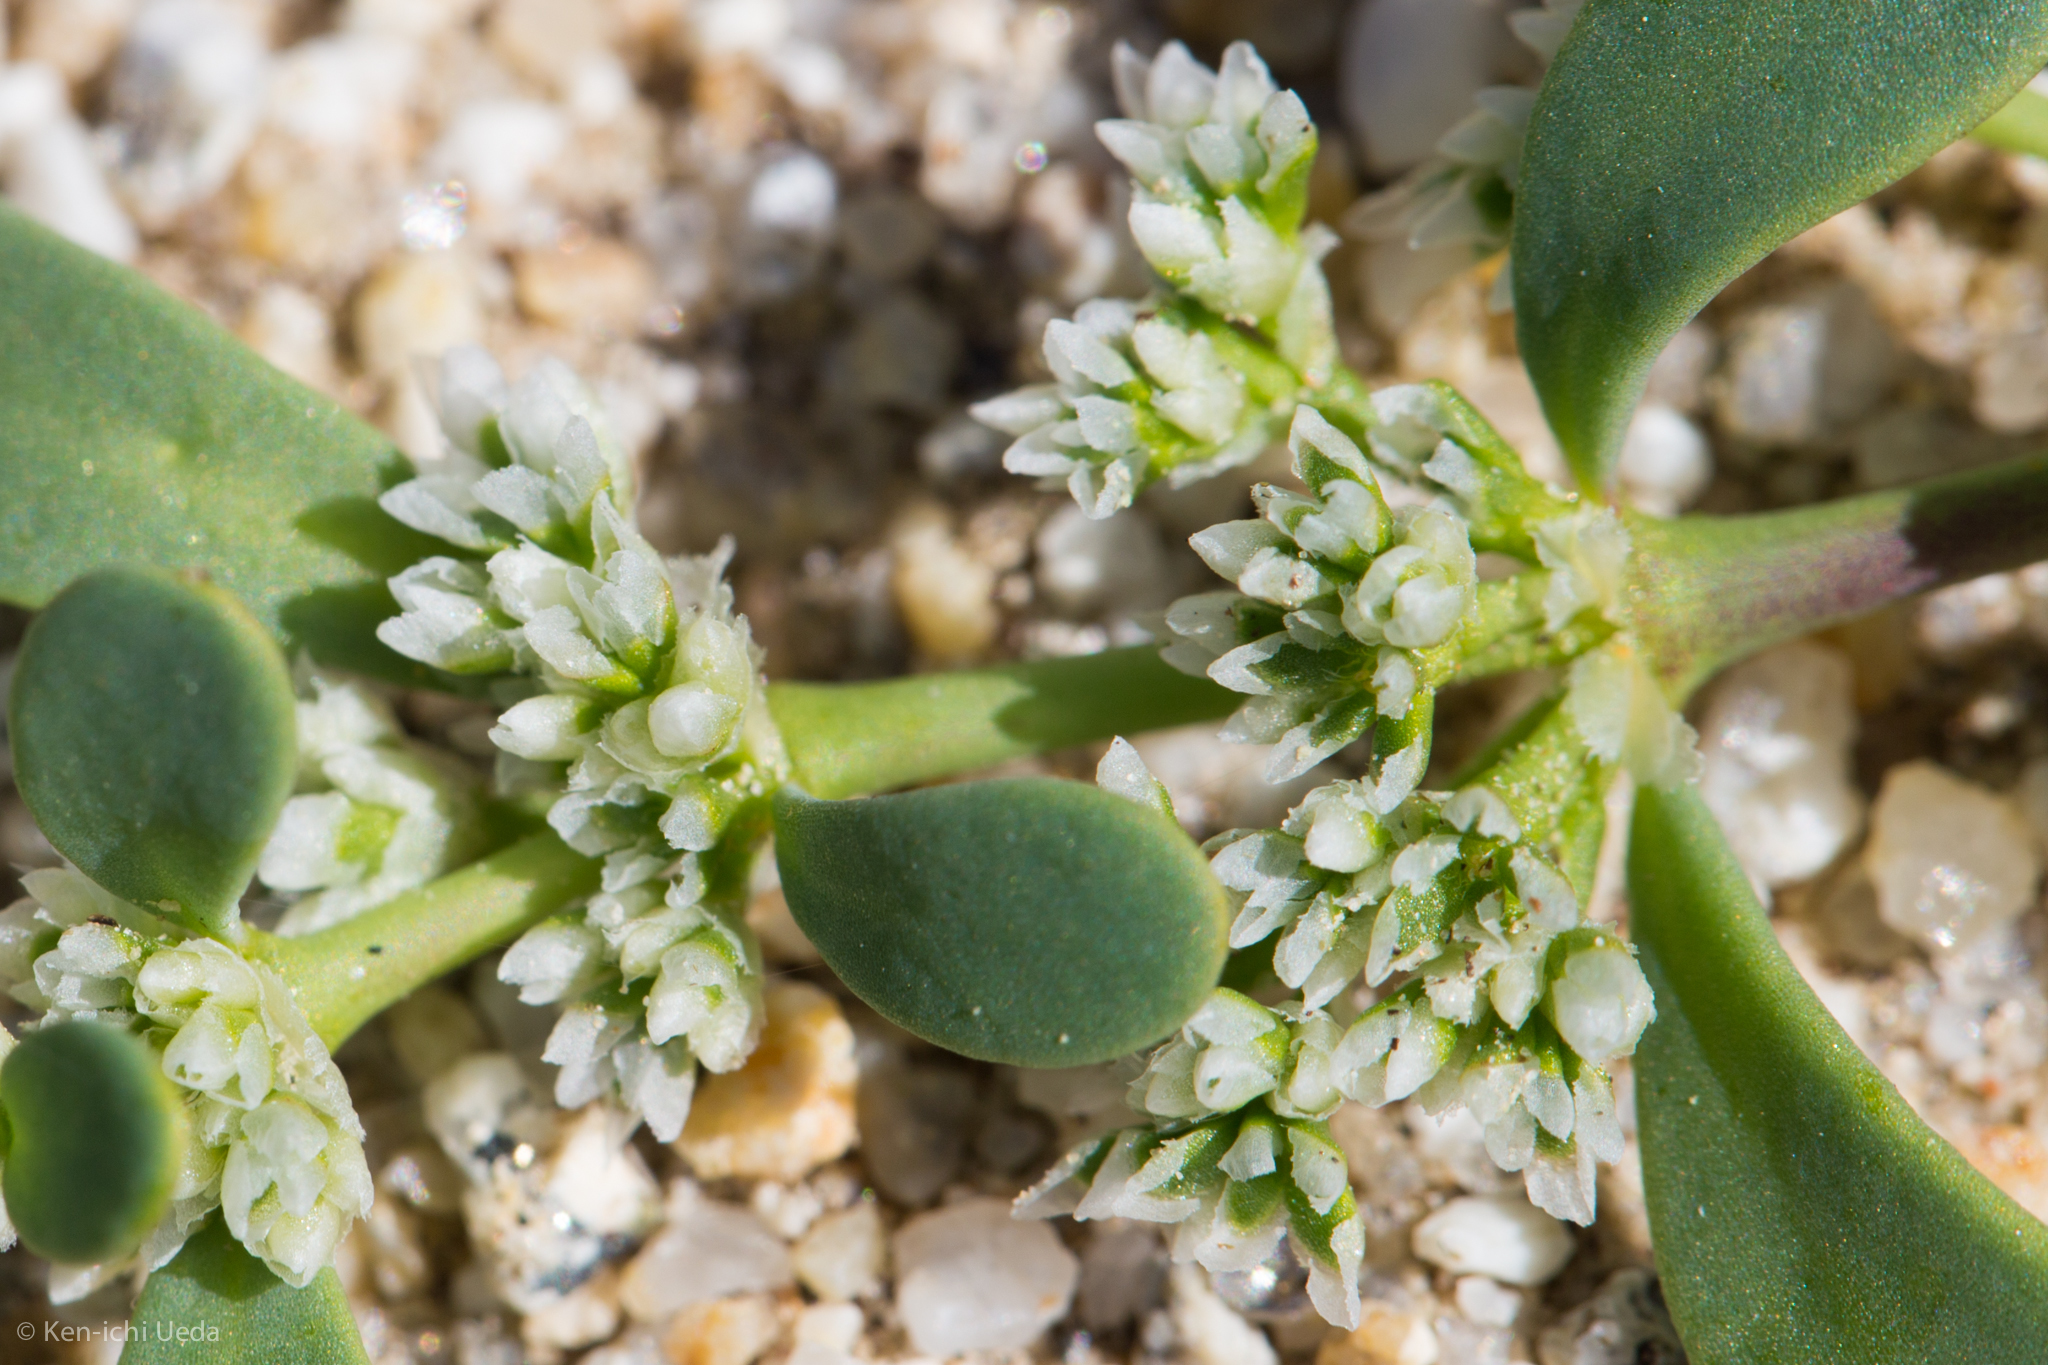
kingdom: Plantae
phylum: Tracheophyta
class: Magnoliopsida
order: Caryophyllales
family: Caryophyllaceae
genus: Achyronychia
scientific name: Achyronychia cooperi
